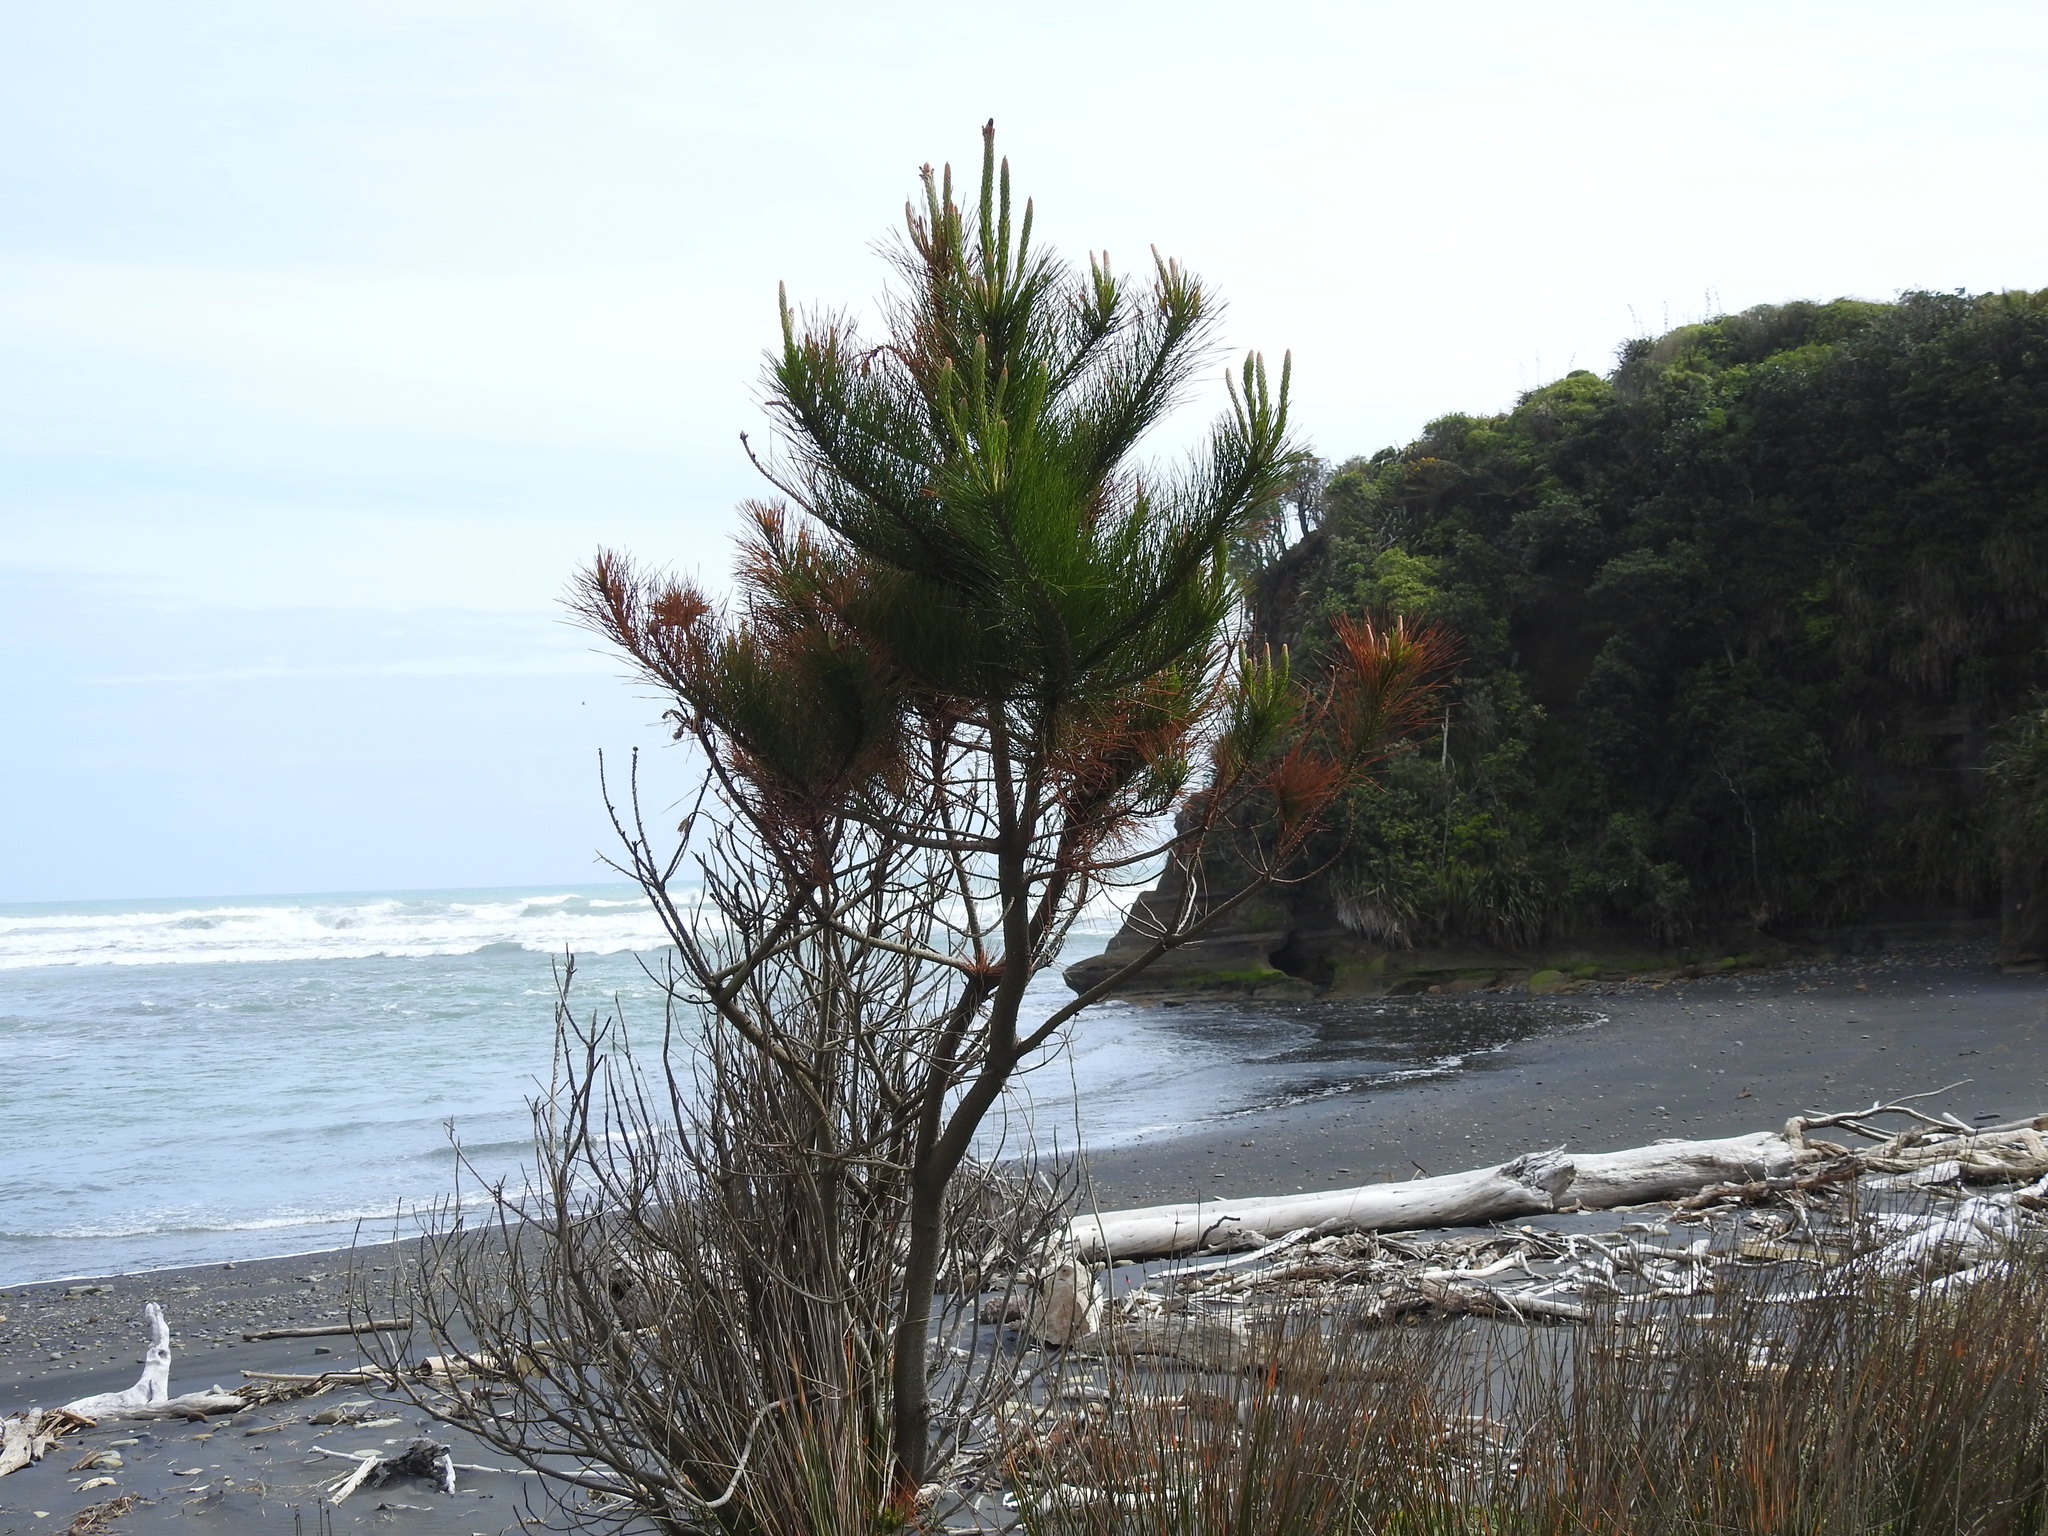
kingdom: Plantae
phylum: Tracheophyta
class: Pinopsida
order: Pinales
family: Pinaceae
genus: Pinus
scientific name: Pinus radiata
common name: Monterey pine
